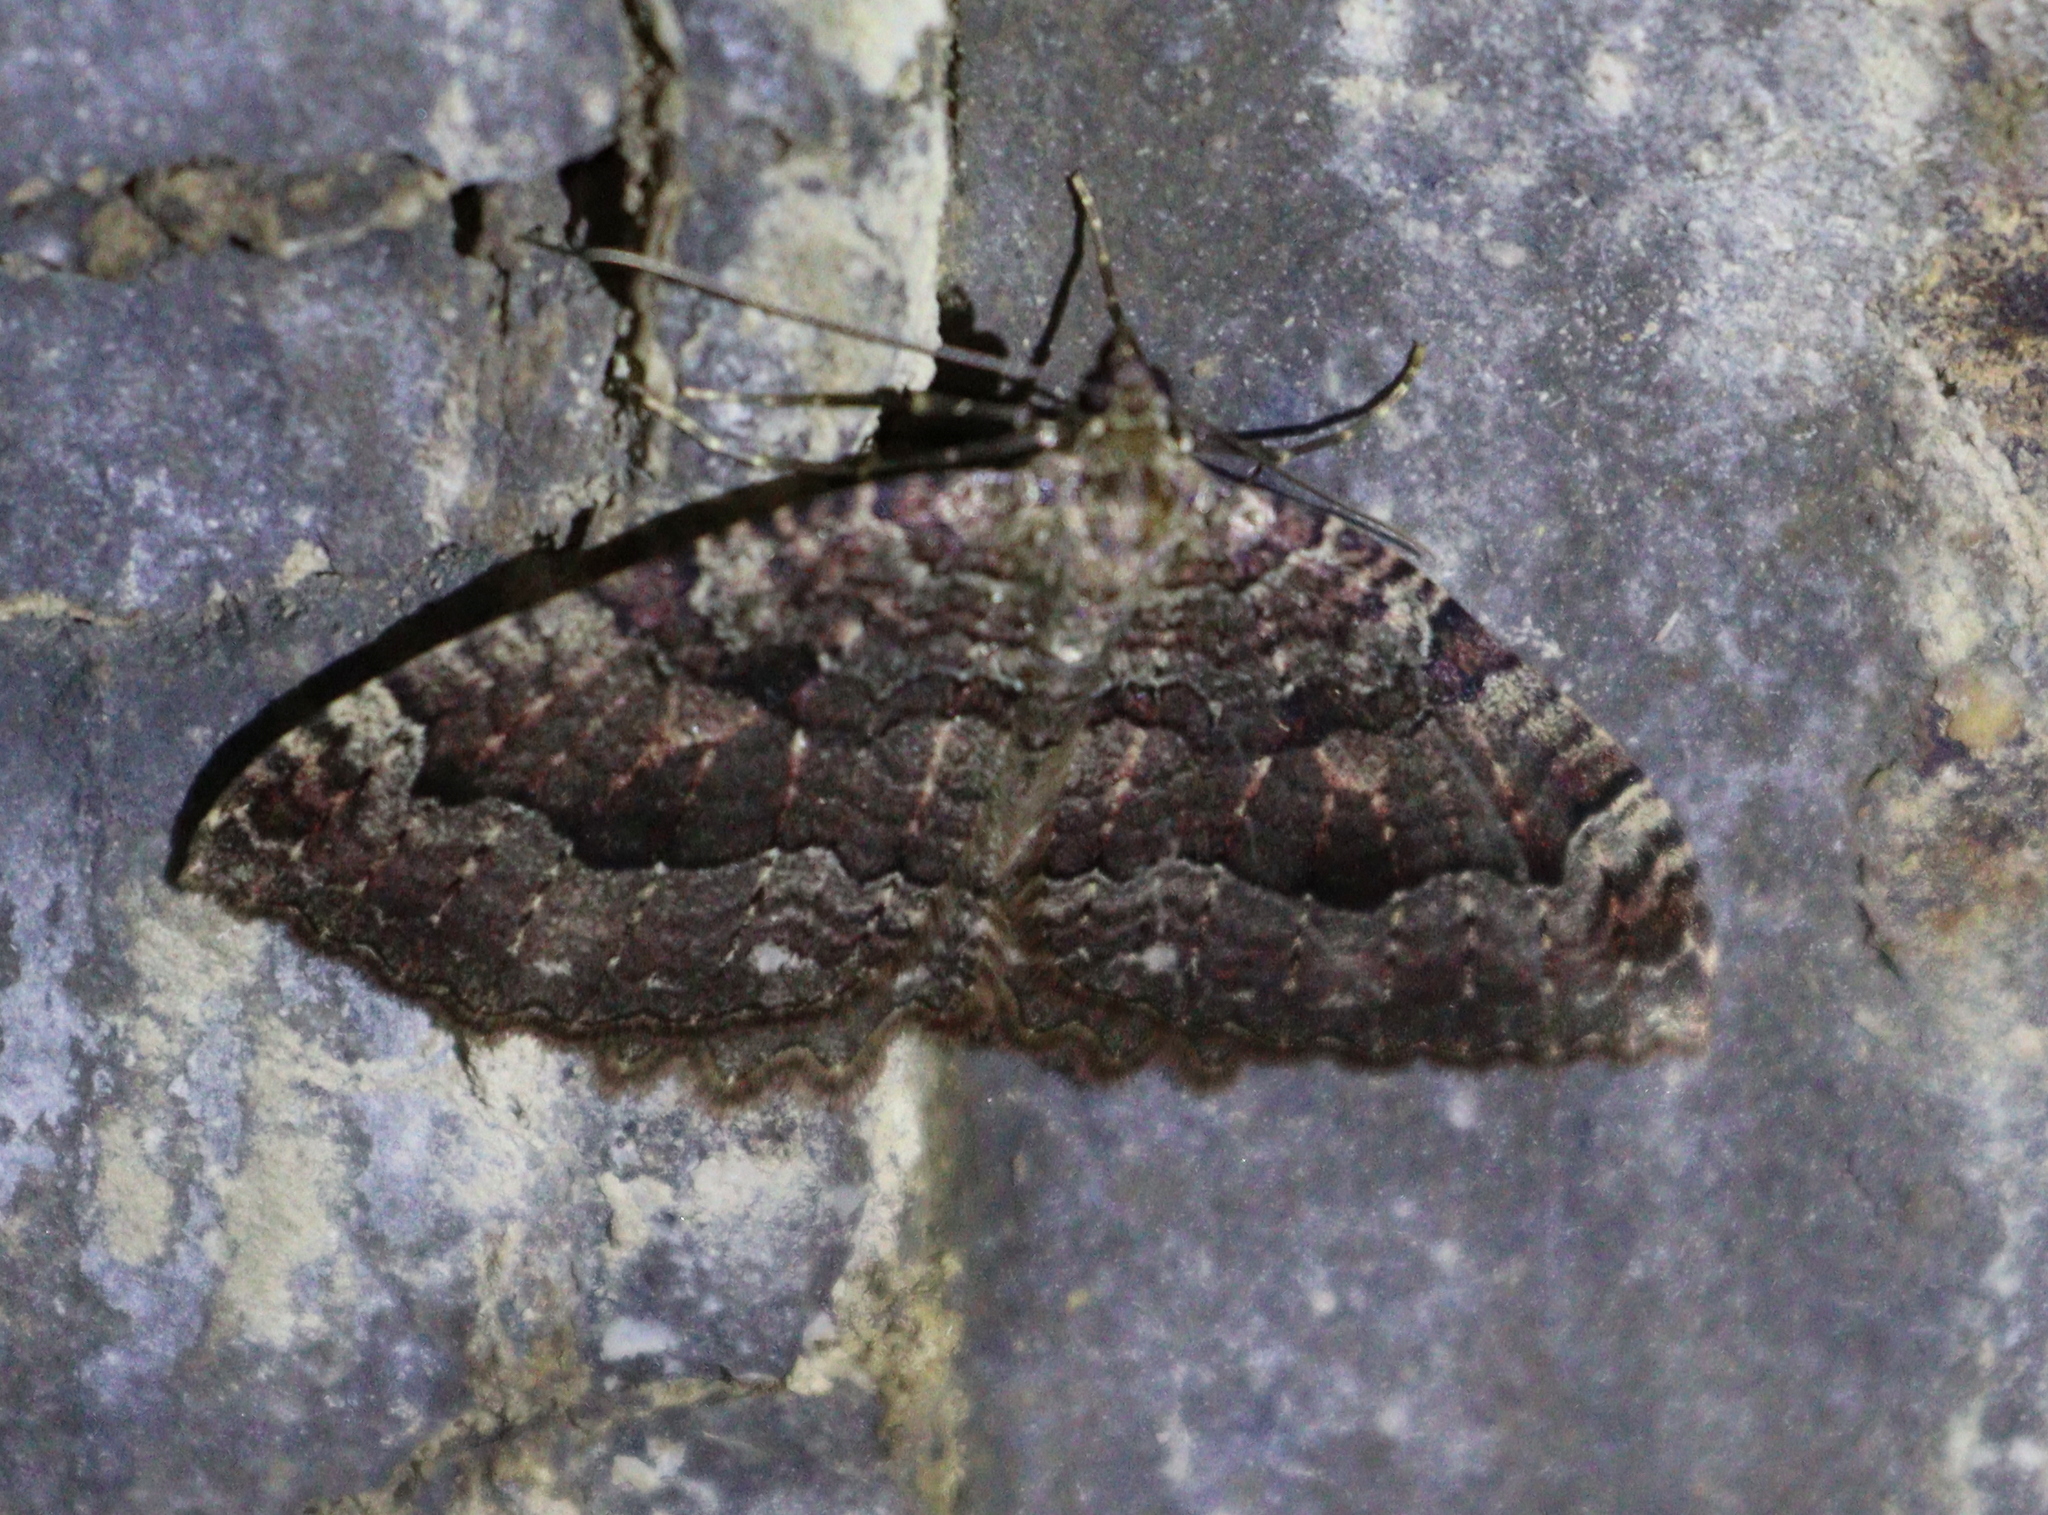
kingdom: Animalia
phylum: Arthropoda
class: Insecta
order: Lepidoptera
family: Geometridae
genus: Triphosa
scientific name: Triphosa dubitata
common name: Tissue
